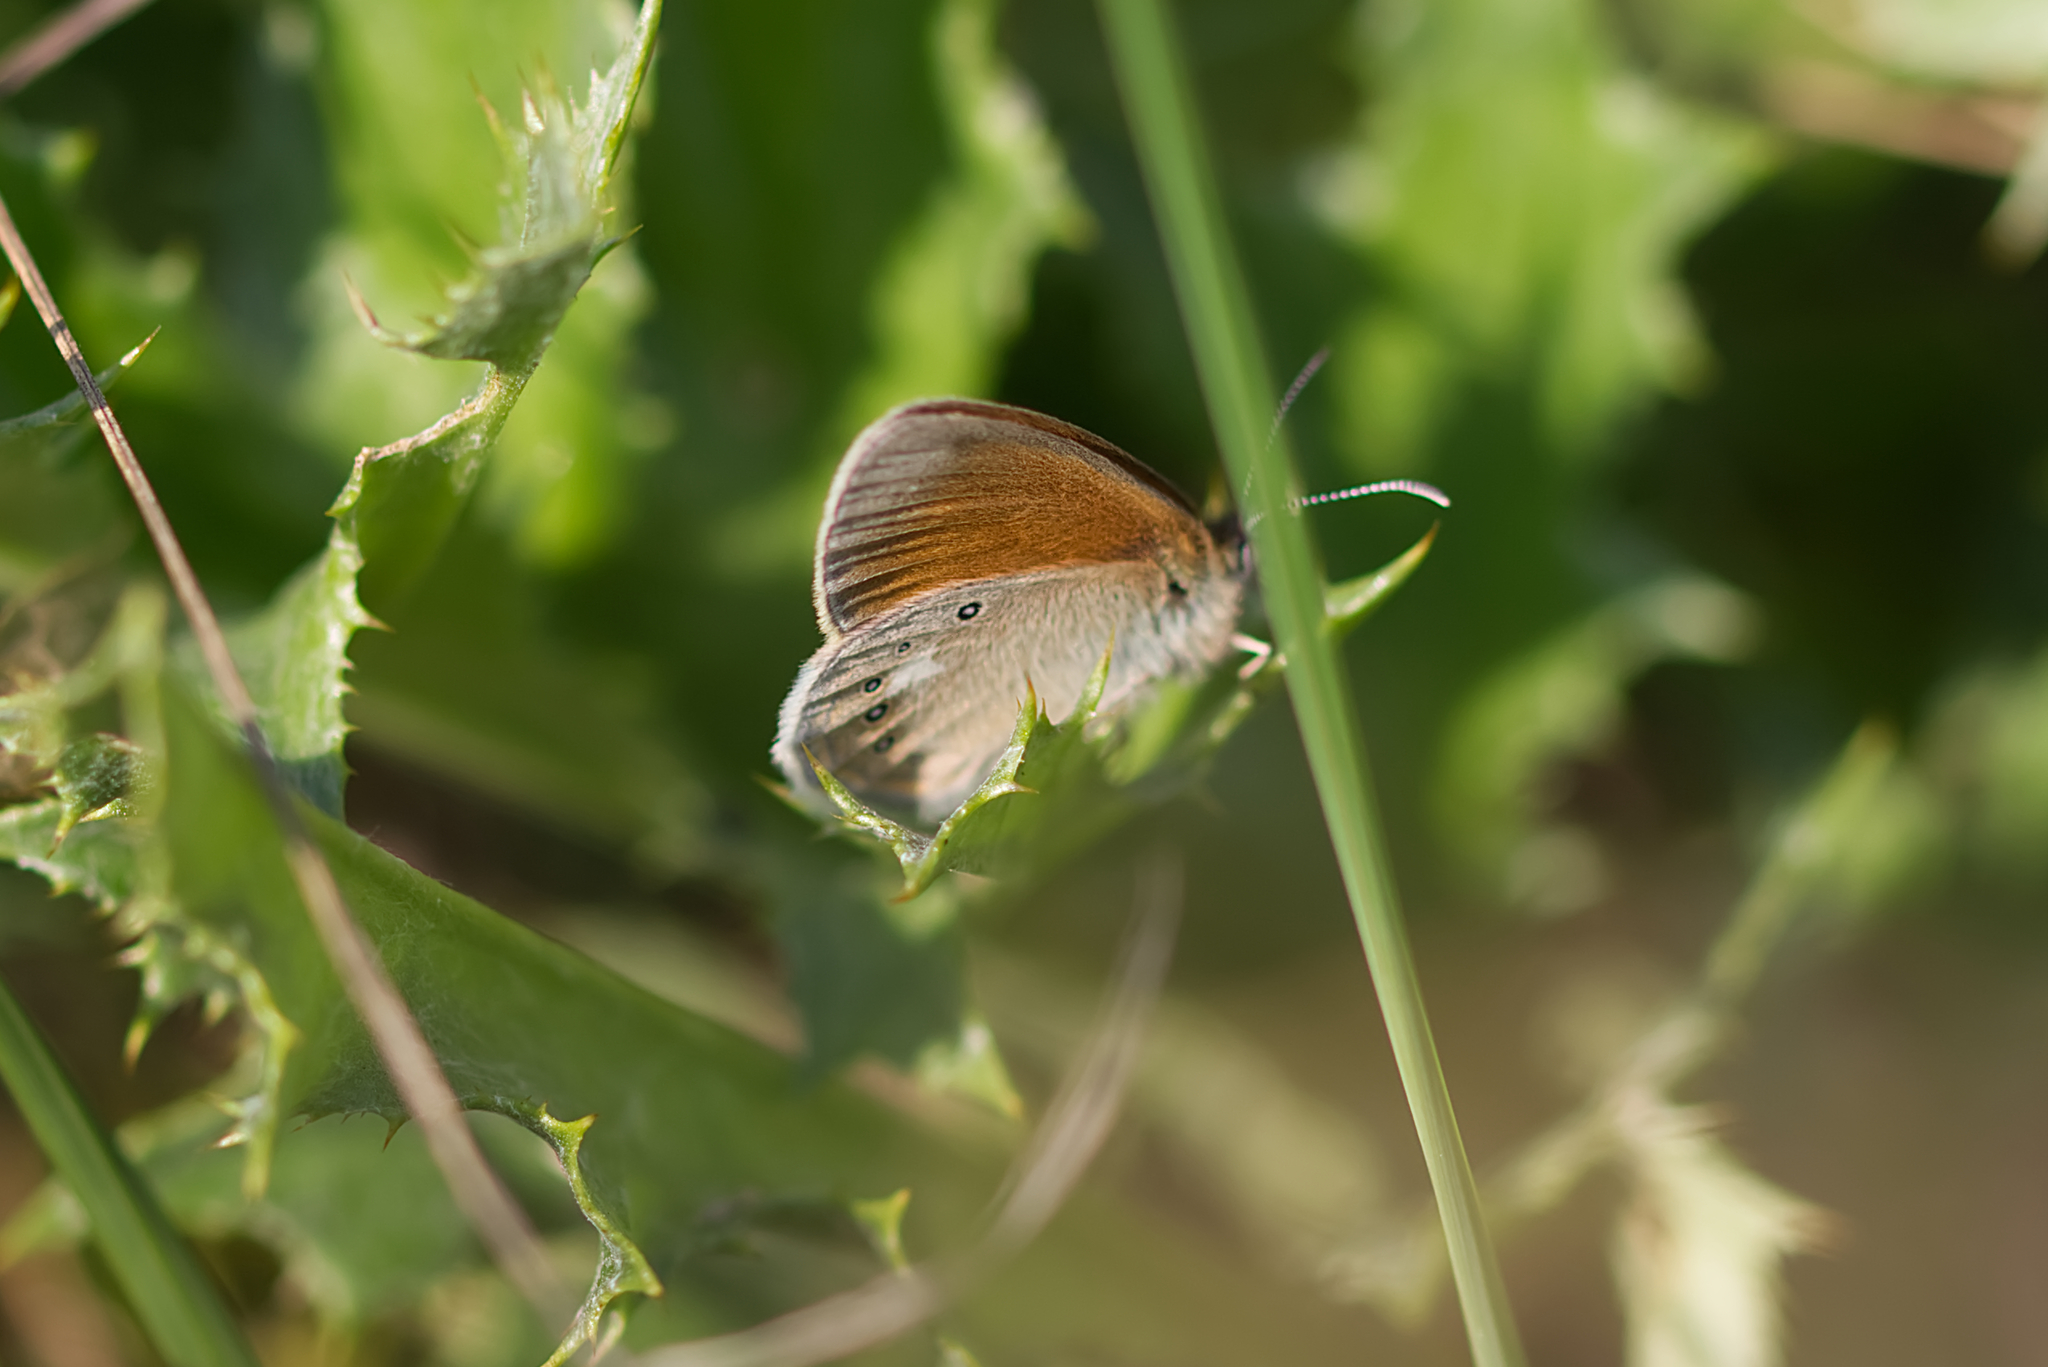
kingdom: Animalia
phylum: Arthropoda
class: Insecta
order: Lepidoptera
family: Nymphalidae
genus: Coenonympha
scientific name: Coenonympha iphis
